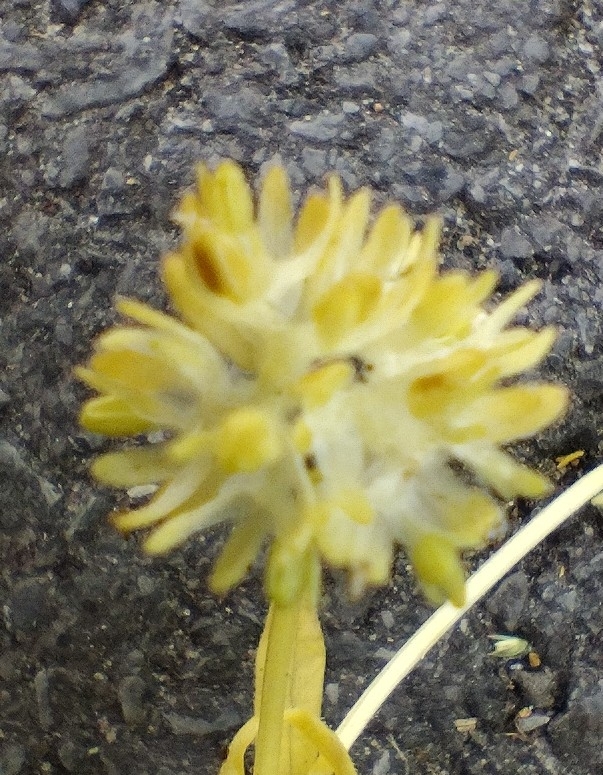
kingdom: Plantae
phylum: Tracheophyta
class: Magnoliopsida
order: Dipsacales
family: Caprifoliaceae
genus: Valerianella
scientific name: Valerianella carinata
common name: Keeled-fruited cornsalad
